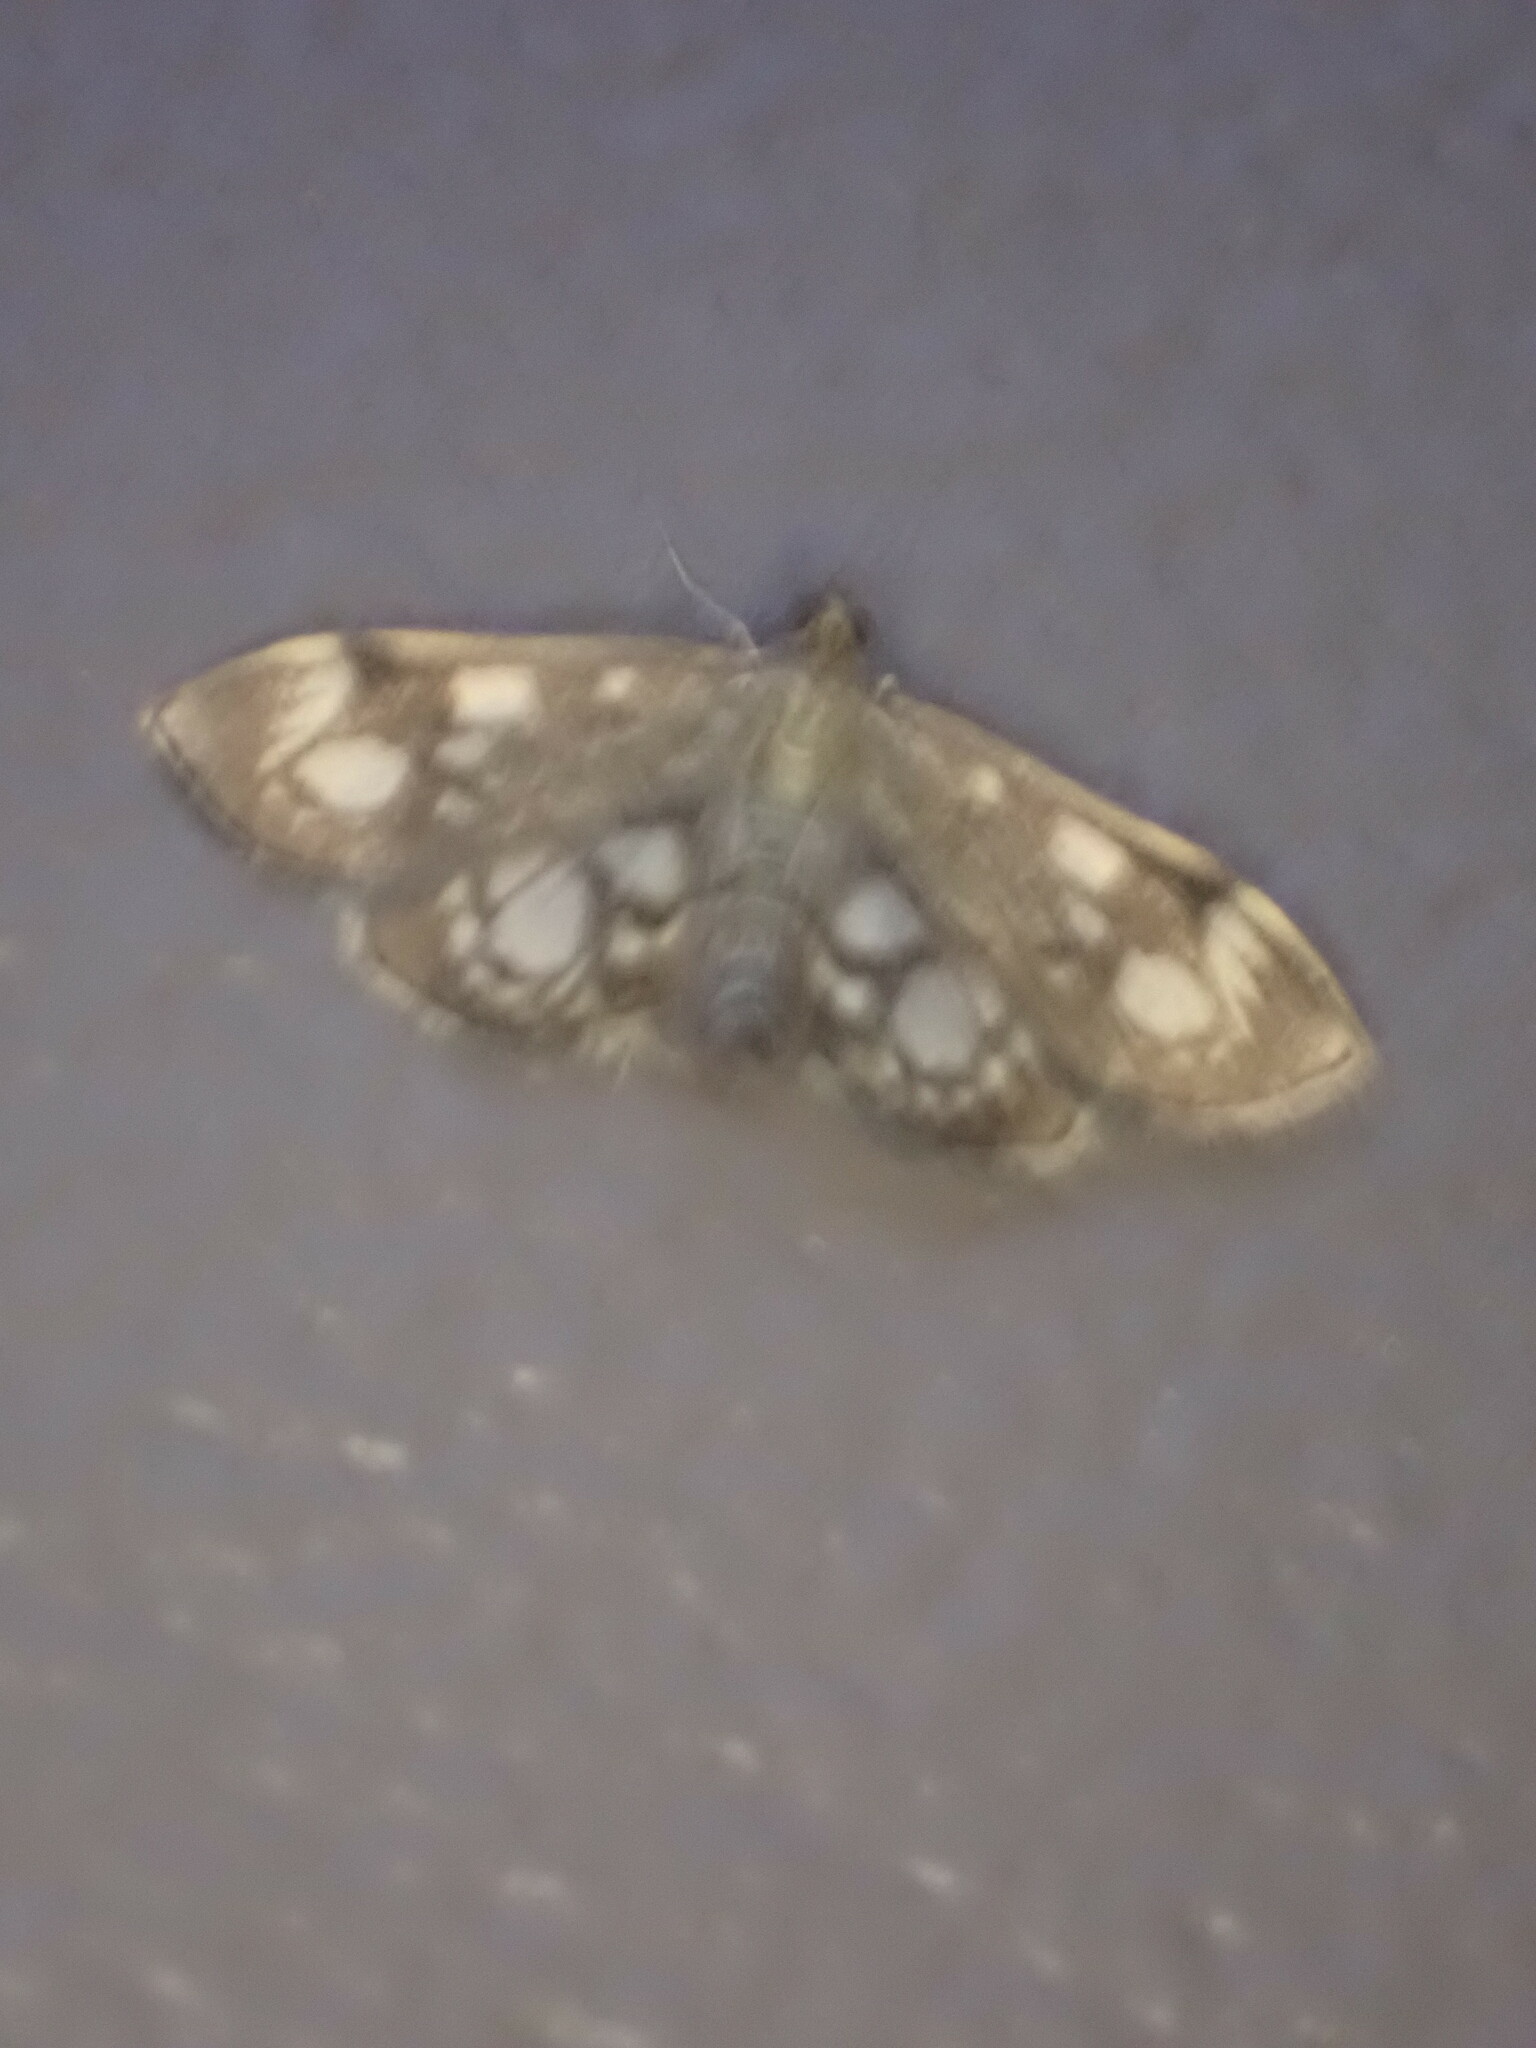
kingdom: Animalia
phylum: Arthropoda
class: Insecta
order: Lepidoptera
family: Crambidae
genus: Anania
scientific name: Anania coronata
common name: Elder pearl
